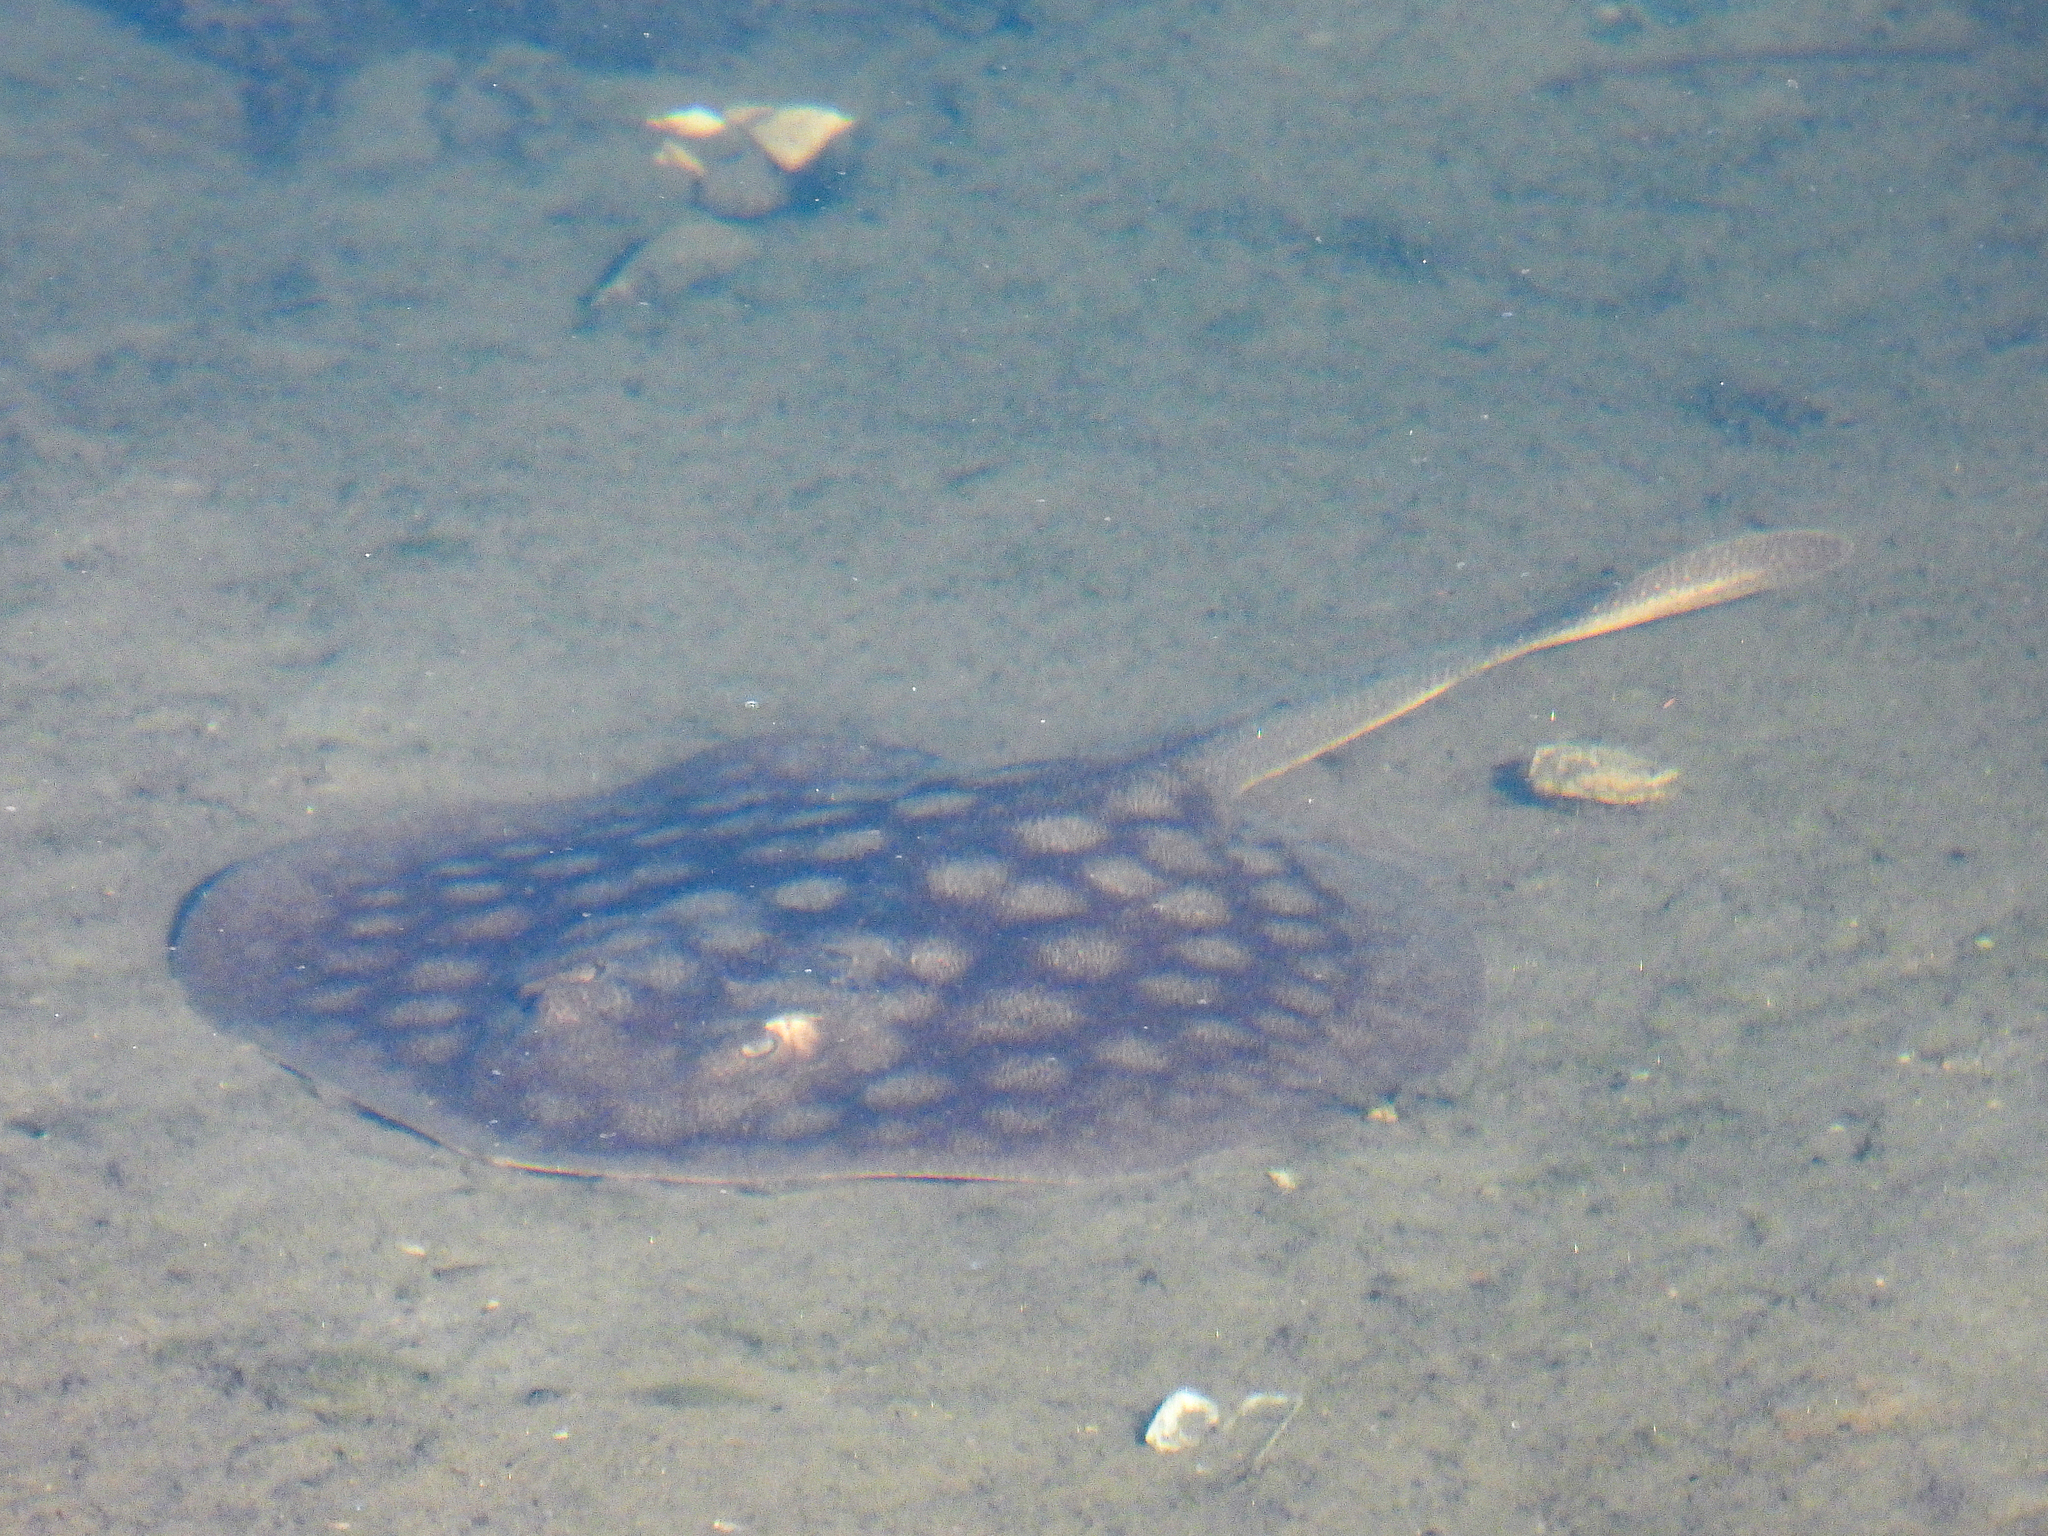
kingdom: Animalia
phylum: Chordata
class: Elasmobranchii
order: Myliobatiformes
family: Urolophidae
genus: Urolophus
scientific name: Urolophus halleri
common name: Round stingray
